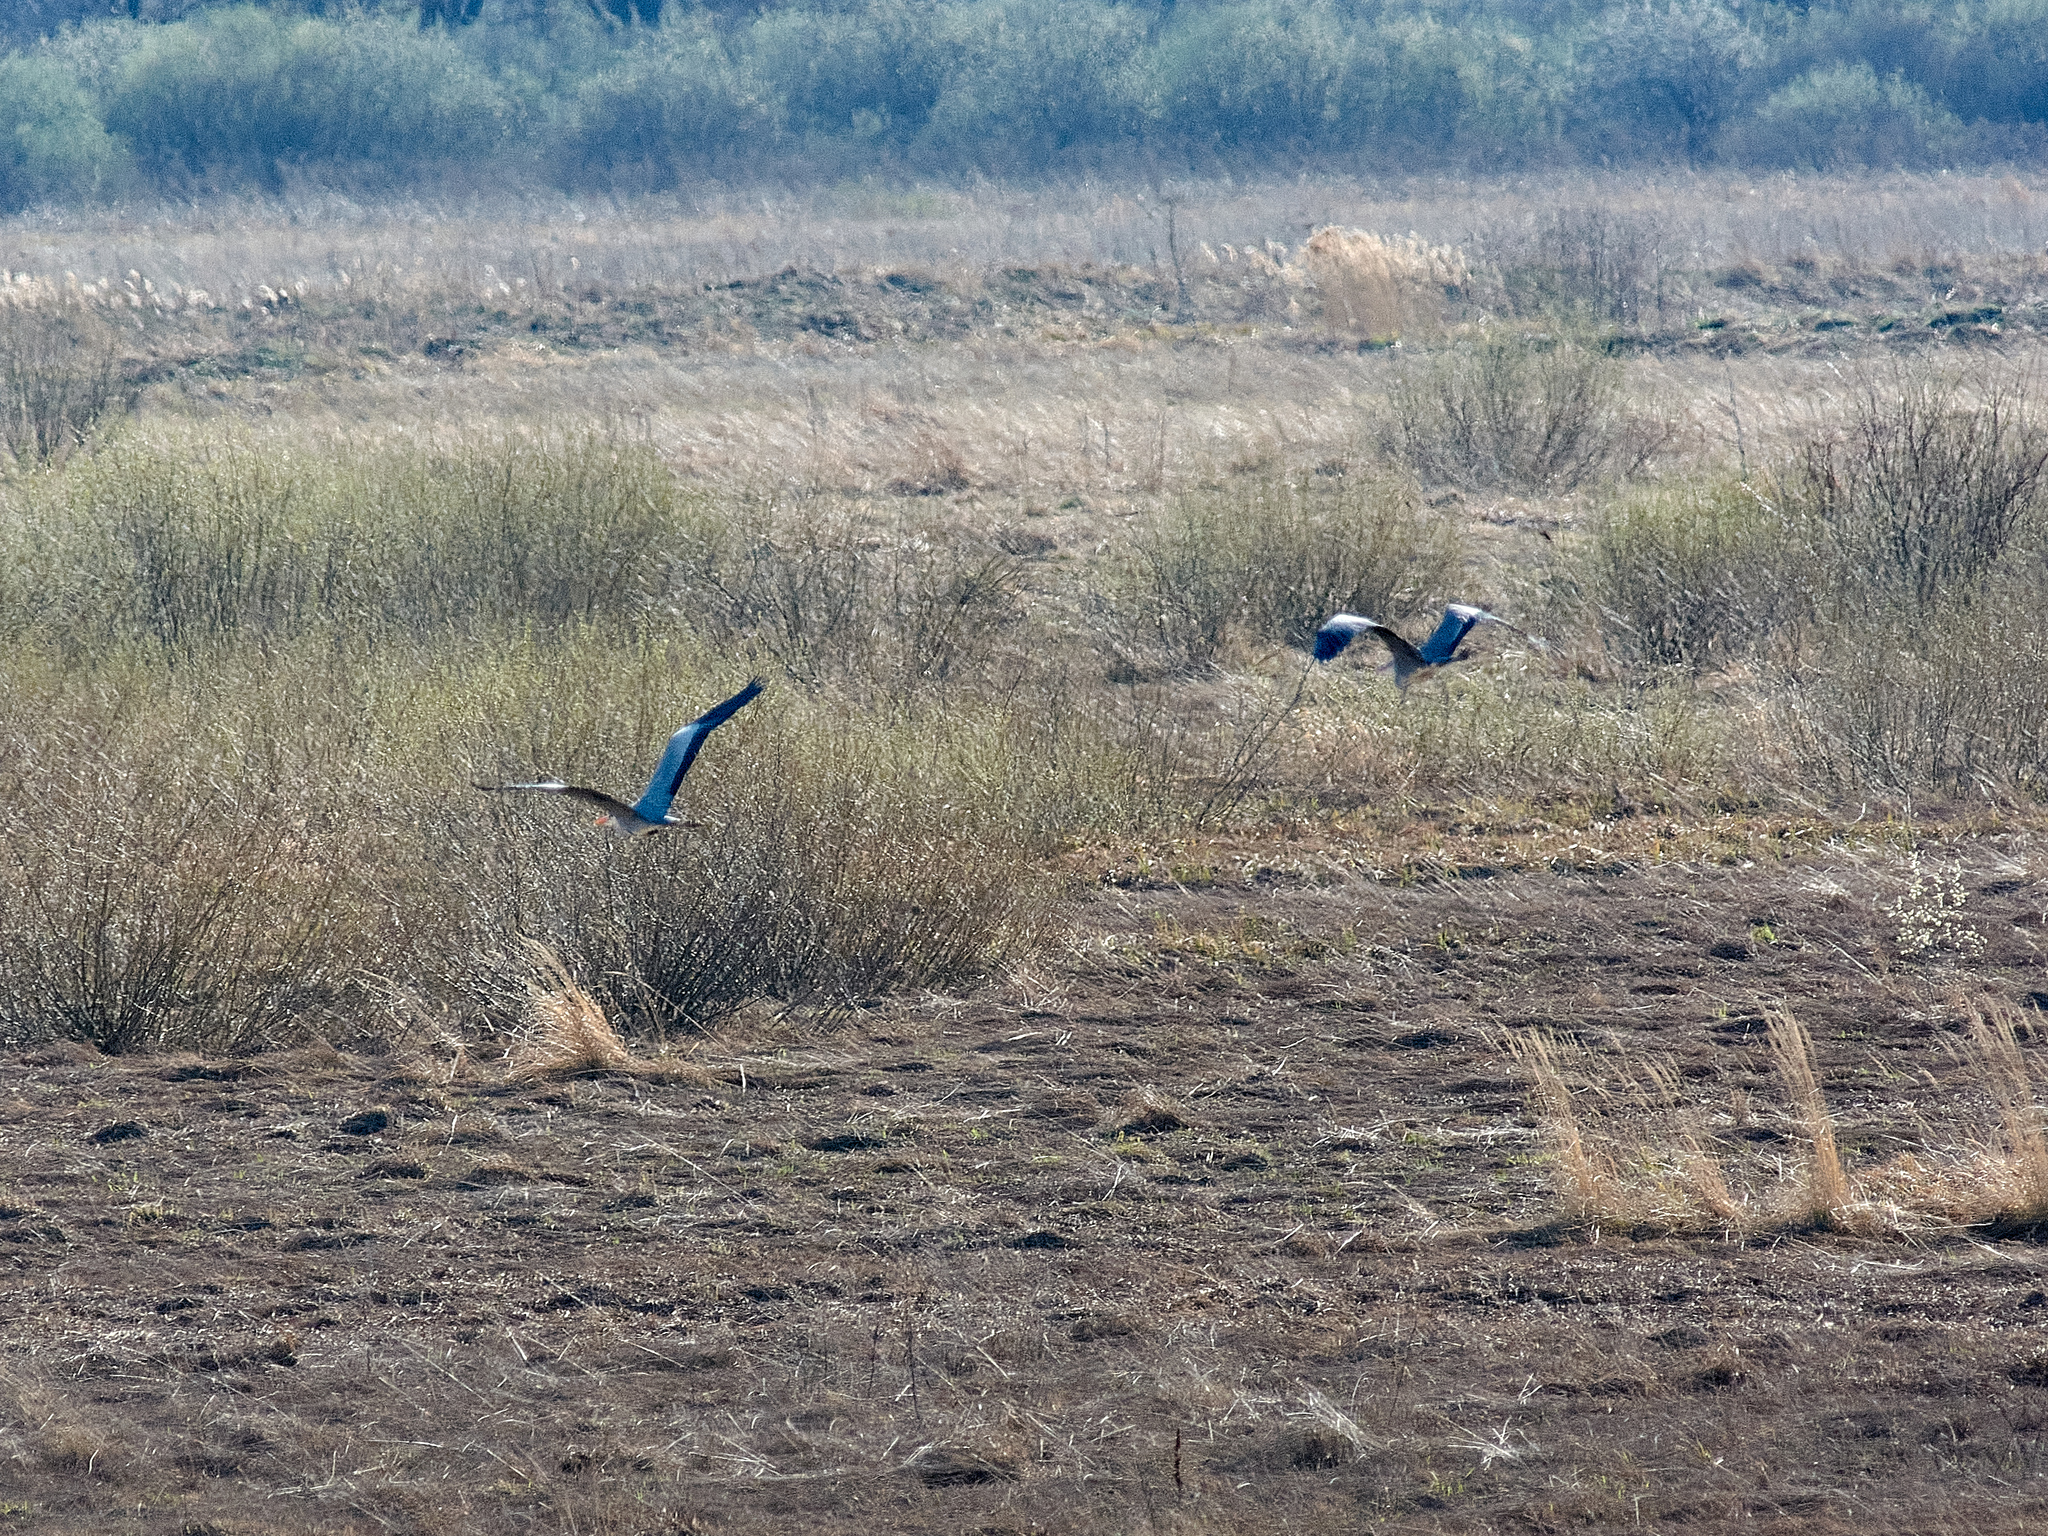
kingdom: Animalia
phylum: Chordata
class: Aves
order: Pelecaniformes
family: Ardeidae
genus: Ardea
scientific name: Ardea cinerea
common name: Grey heron
